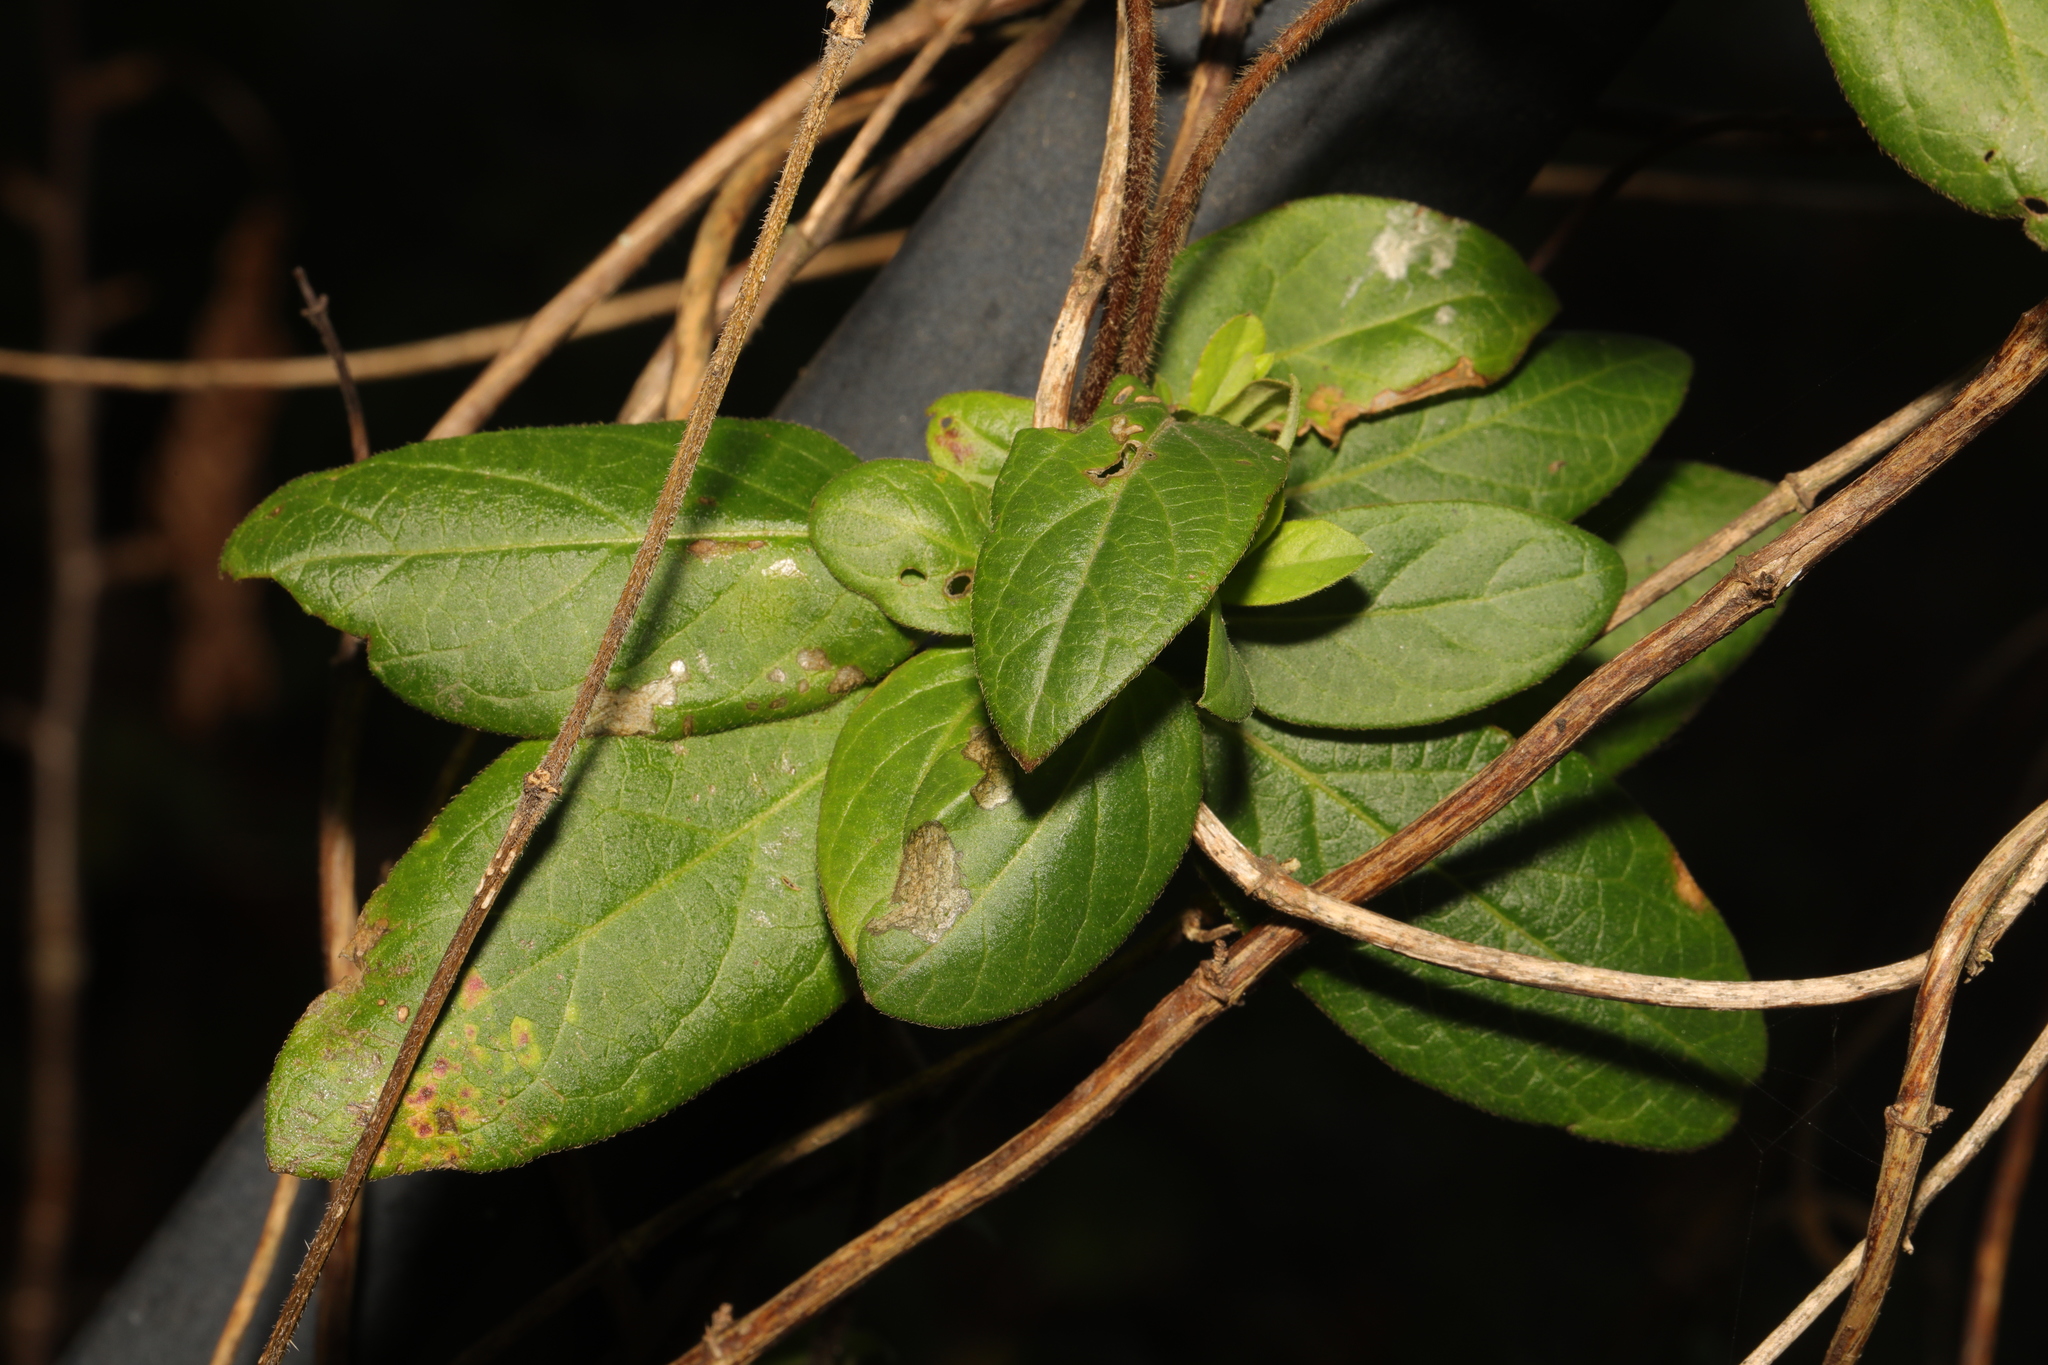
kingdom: Plantae
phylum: Tracheophyta
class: Magnoliopsida
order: Dipsacales
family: Caprifoliaceae
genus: Lonicera
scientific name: Lonicera japonica
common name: Japanese honeysuckle
